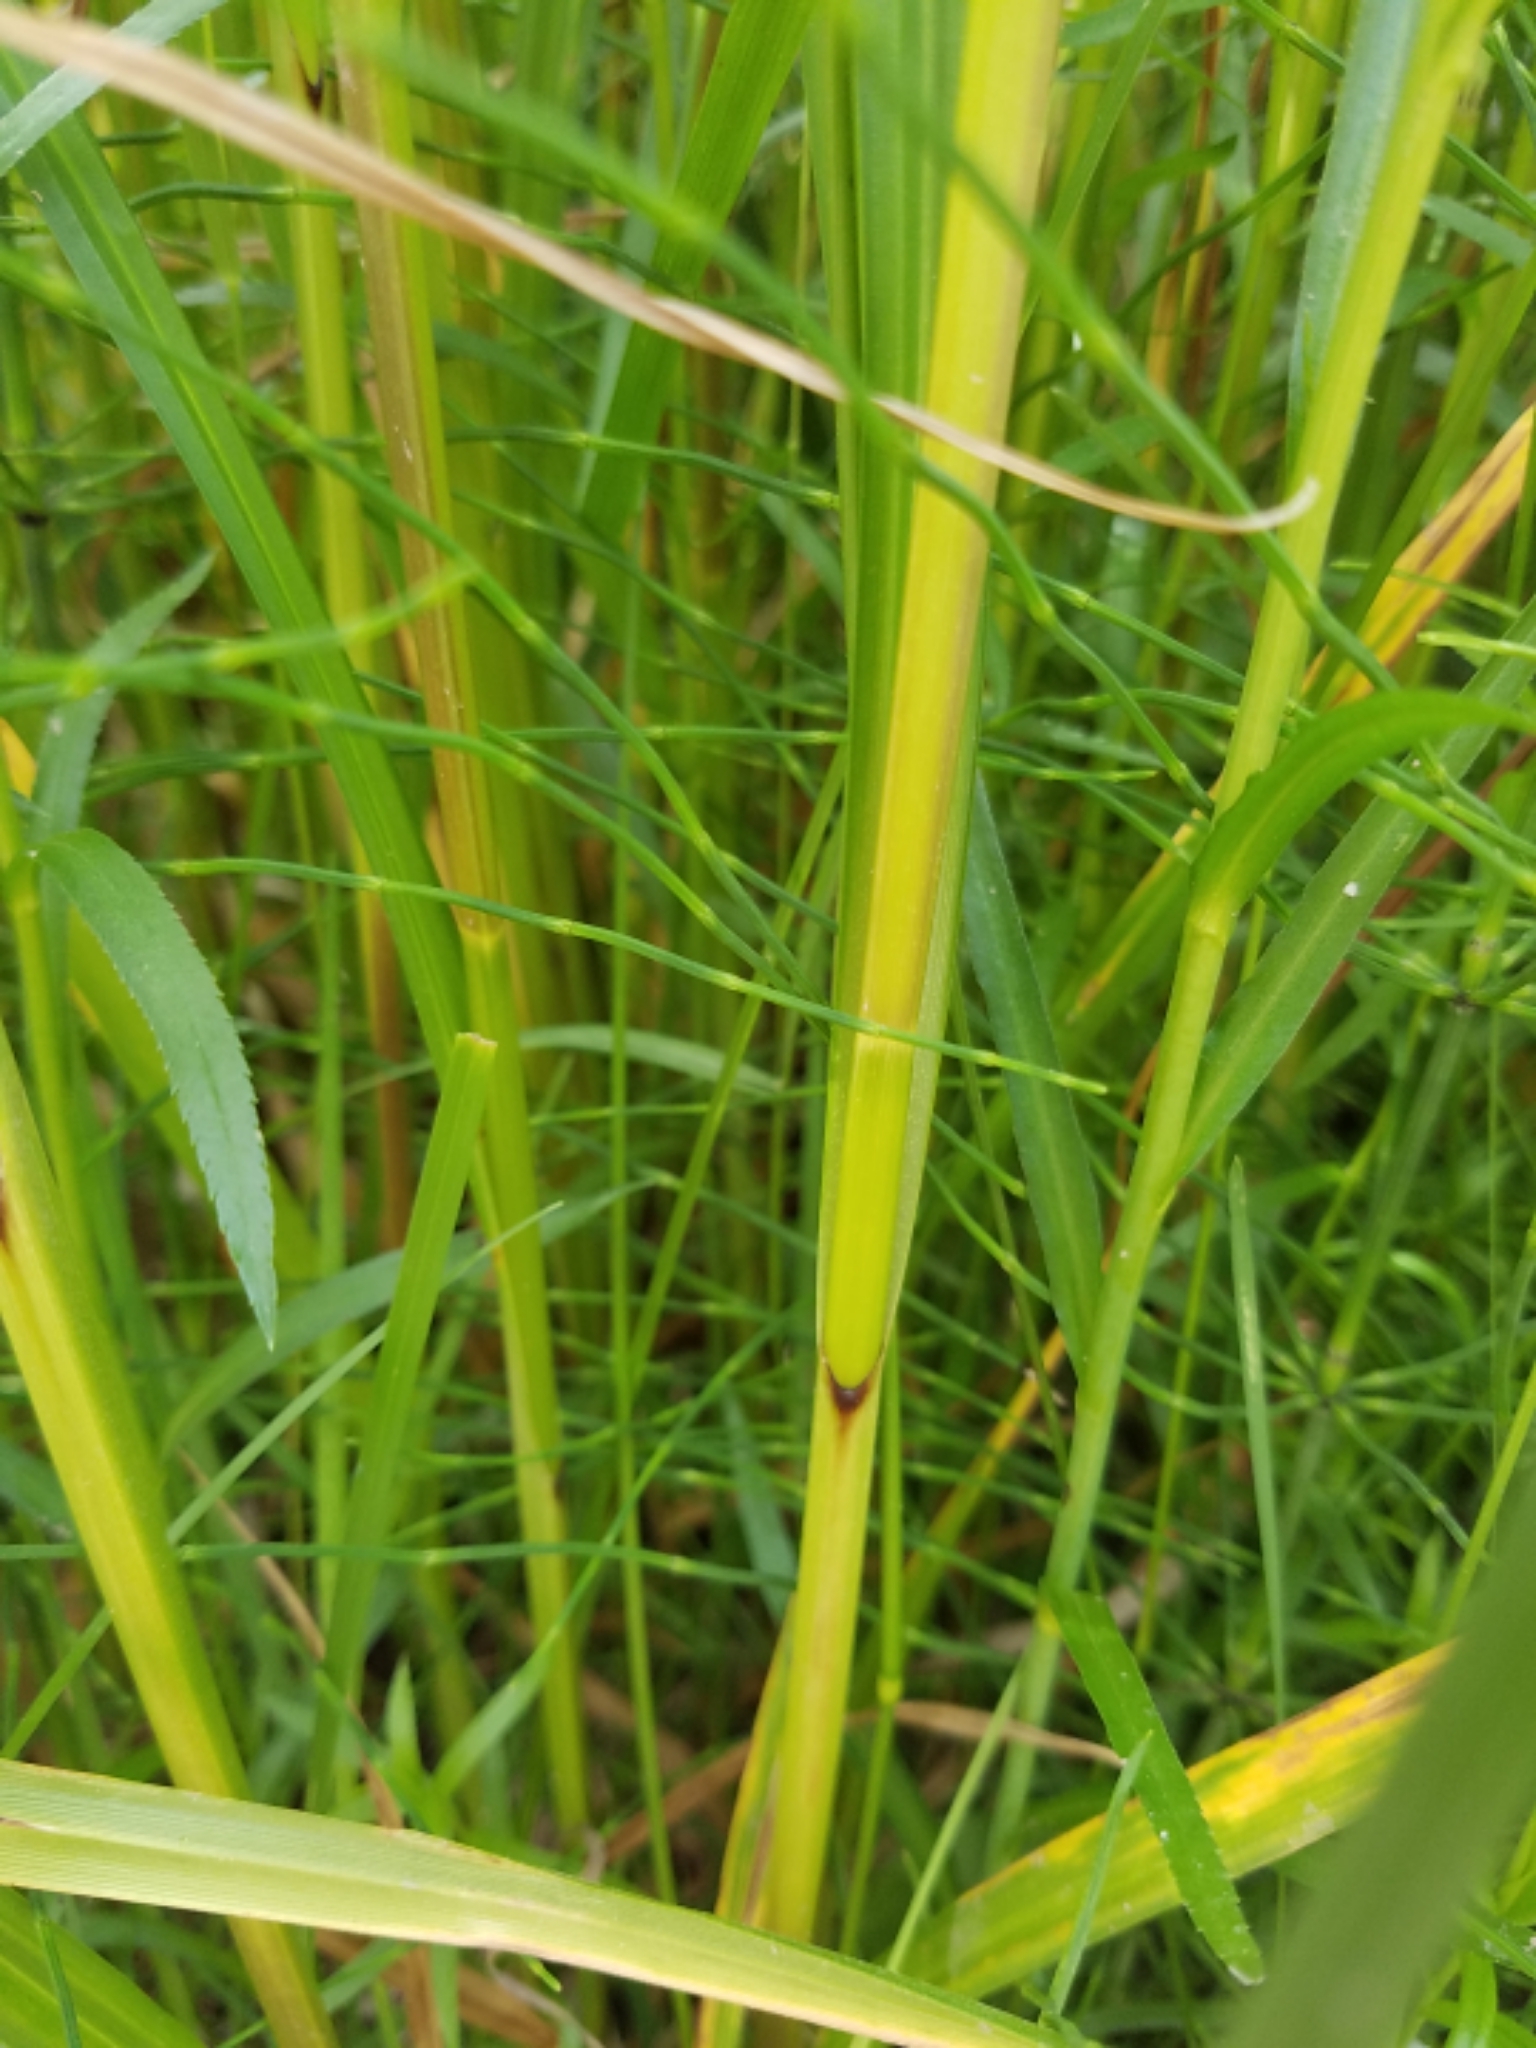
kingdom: Plantae
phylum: Tracheophyta
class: Liliopsida
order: Poales
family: Cyperaceae
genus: Carex
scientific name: Carex trichocarpa
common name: Hairy-fruited lake sedge
